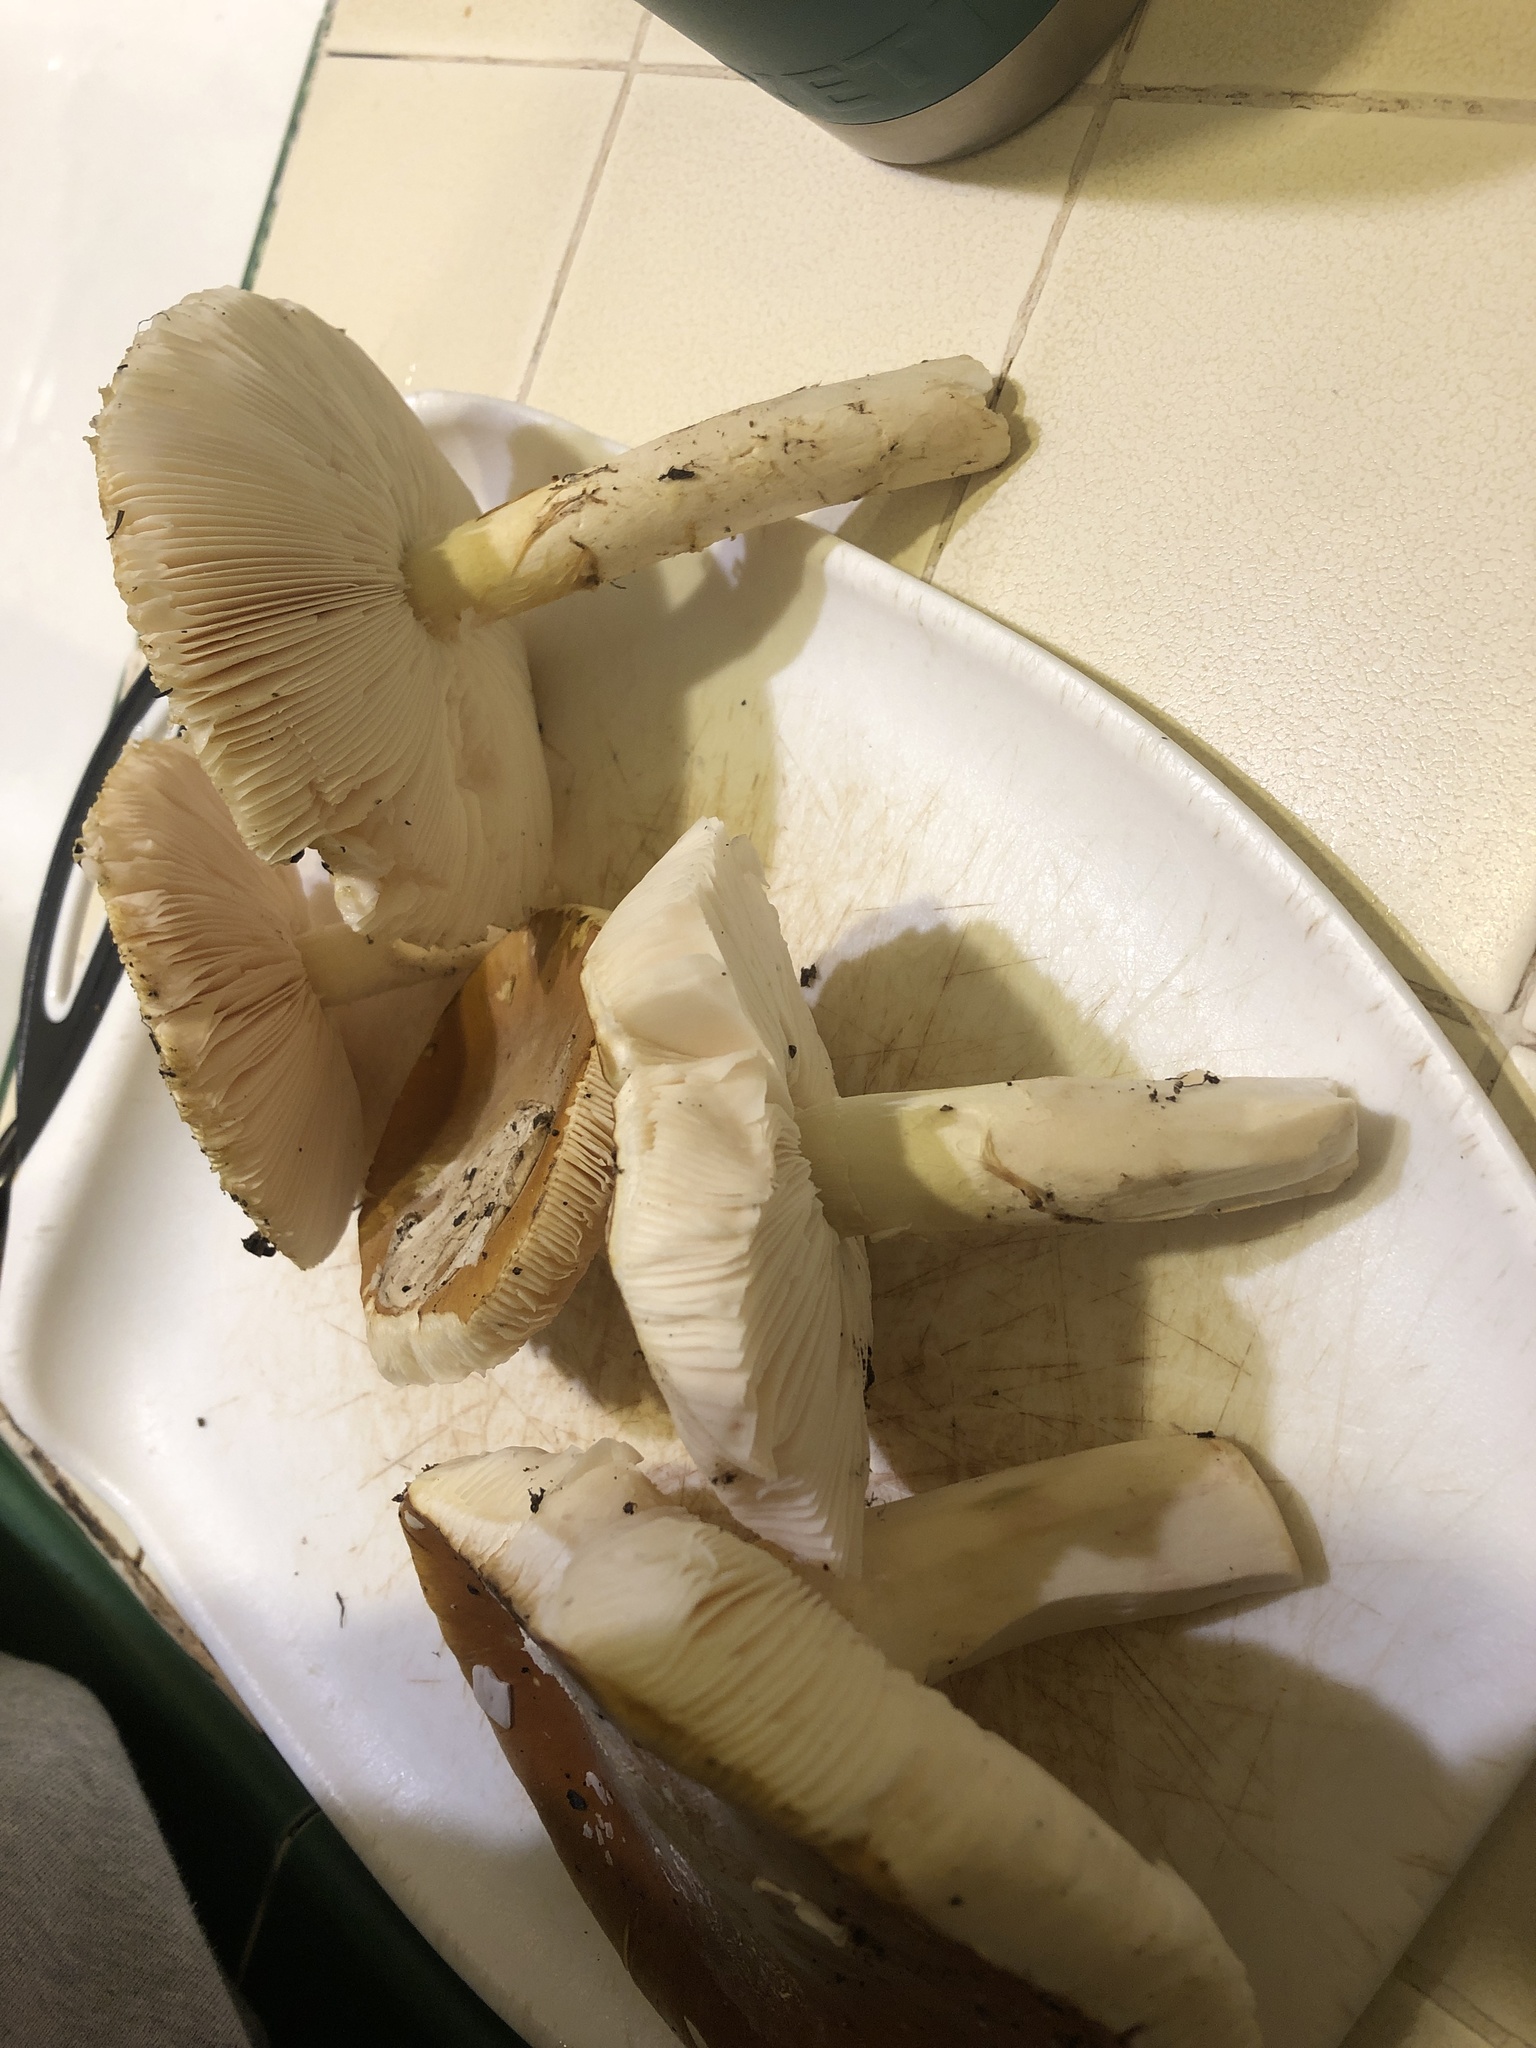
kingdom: Fungi
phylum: Basidiomycota
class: Agaricomycetes
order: Agaricales
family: Amanitaceae
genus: Amanita
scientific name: Amanita calyptroderma
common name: Coccora
